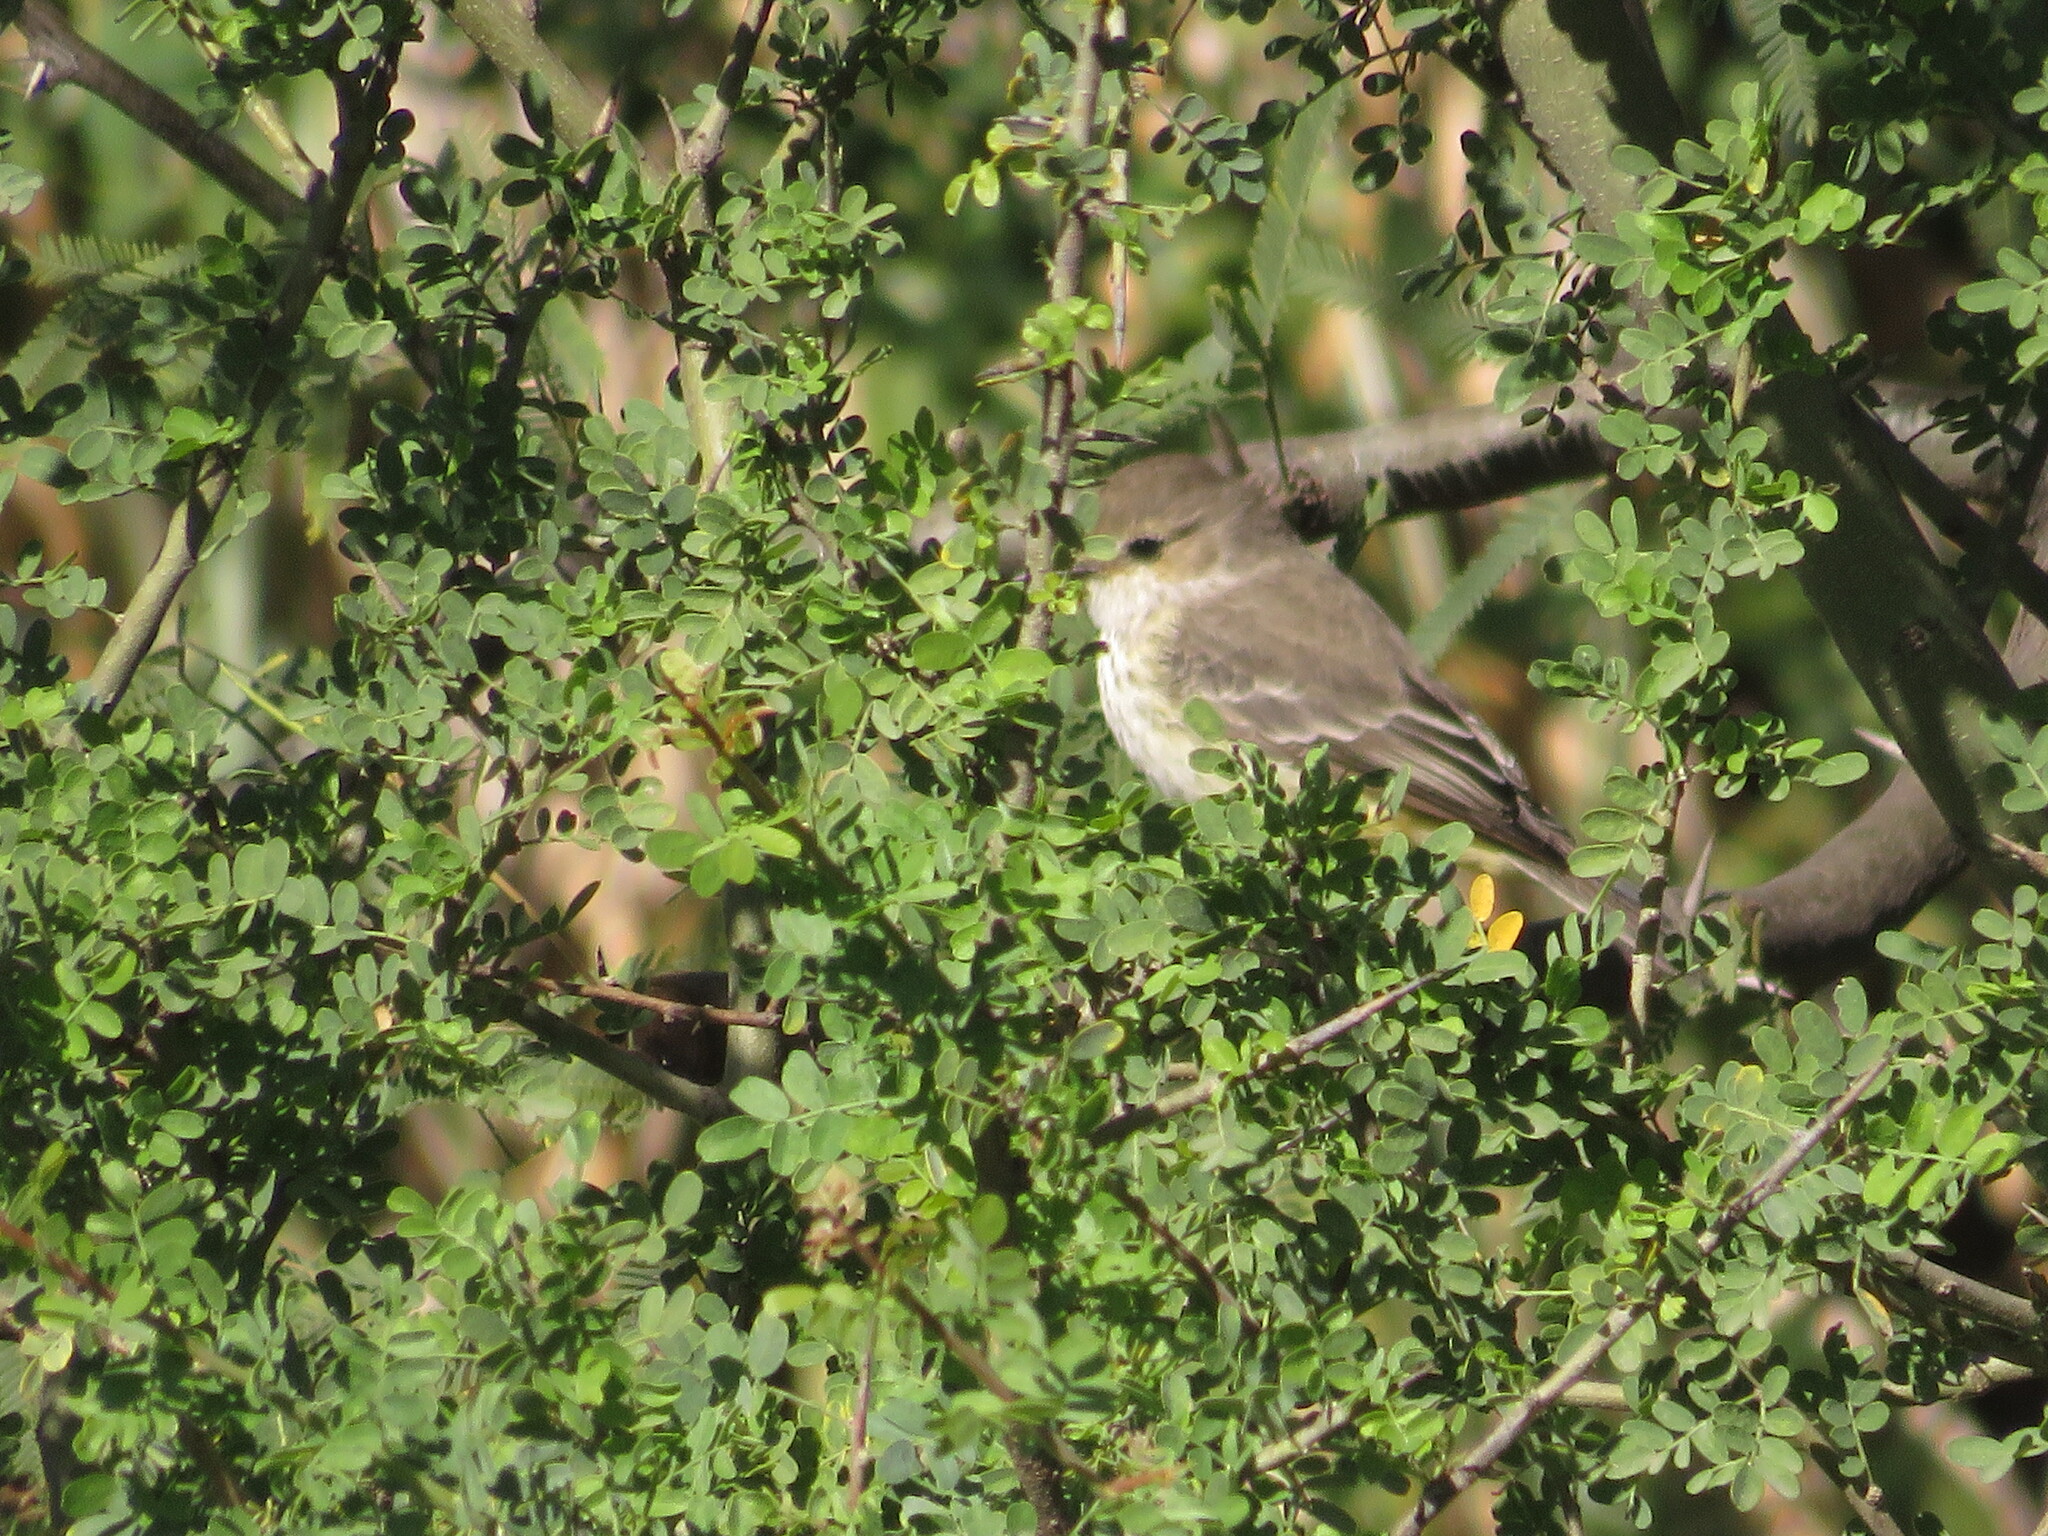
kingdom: Animalia
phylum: Chordata
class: Aves
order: Passeriformes
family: Tyrannidae
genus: Pyrocephalus
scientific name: Pyrocephalus rubinus
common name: Vermilion flycatcher
